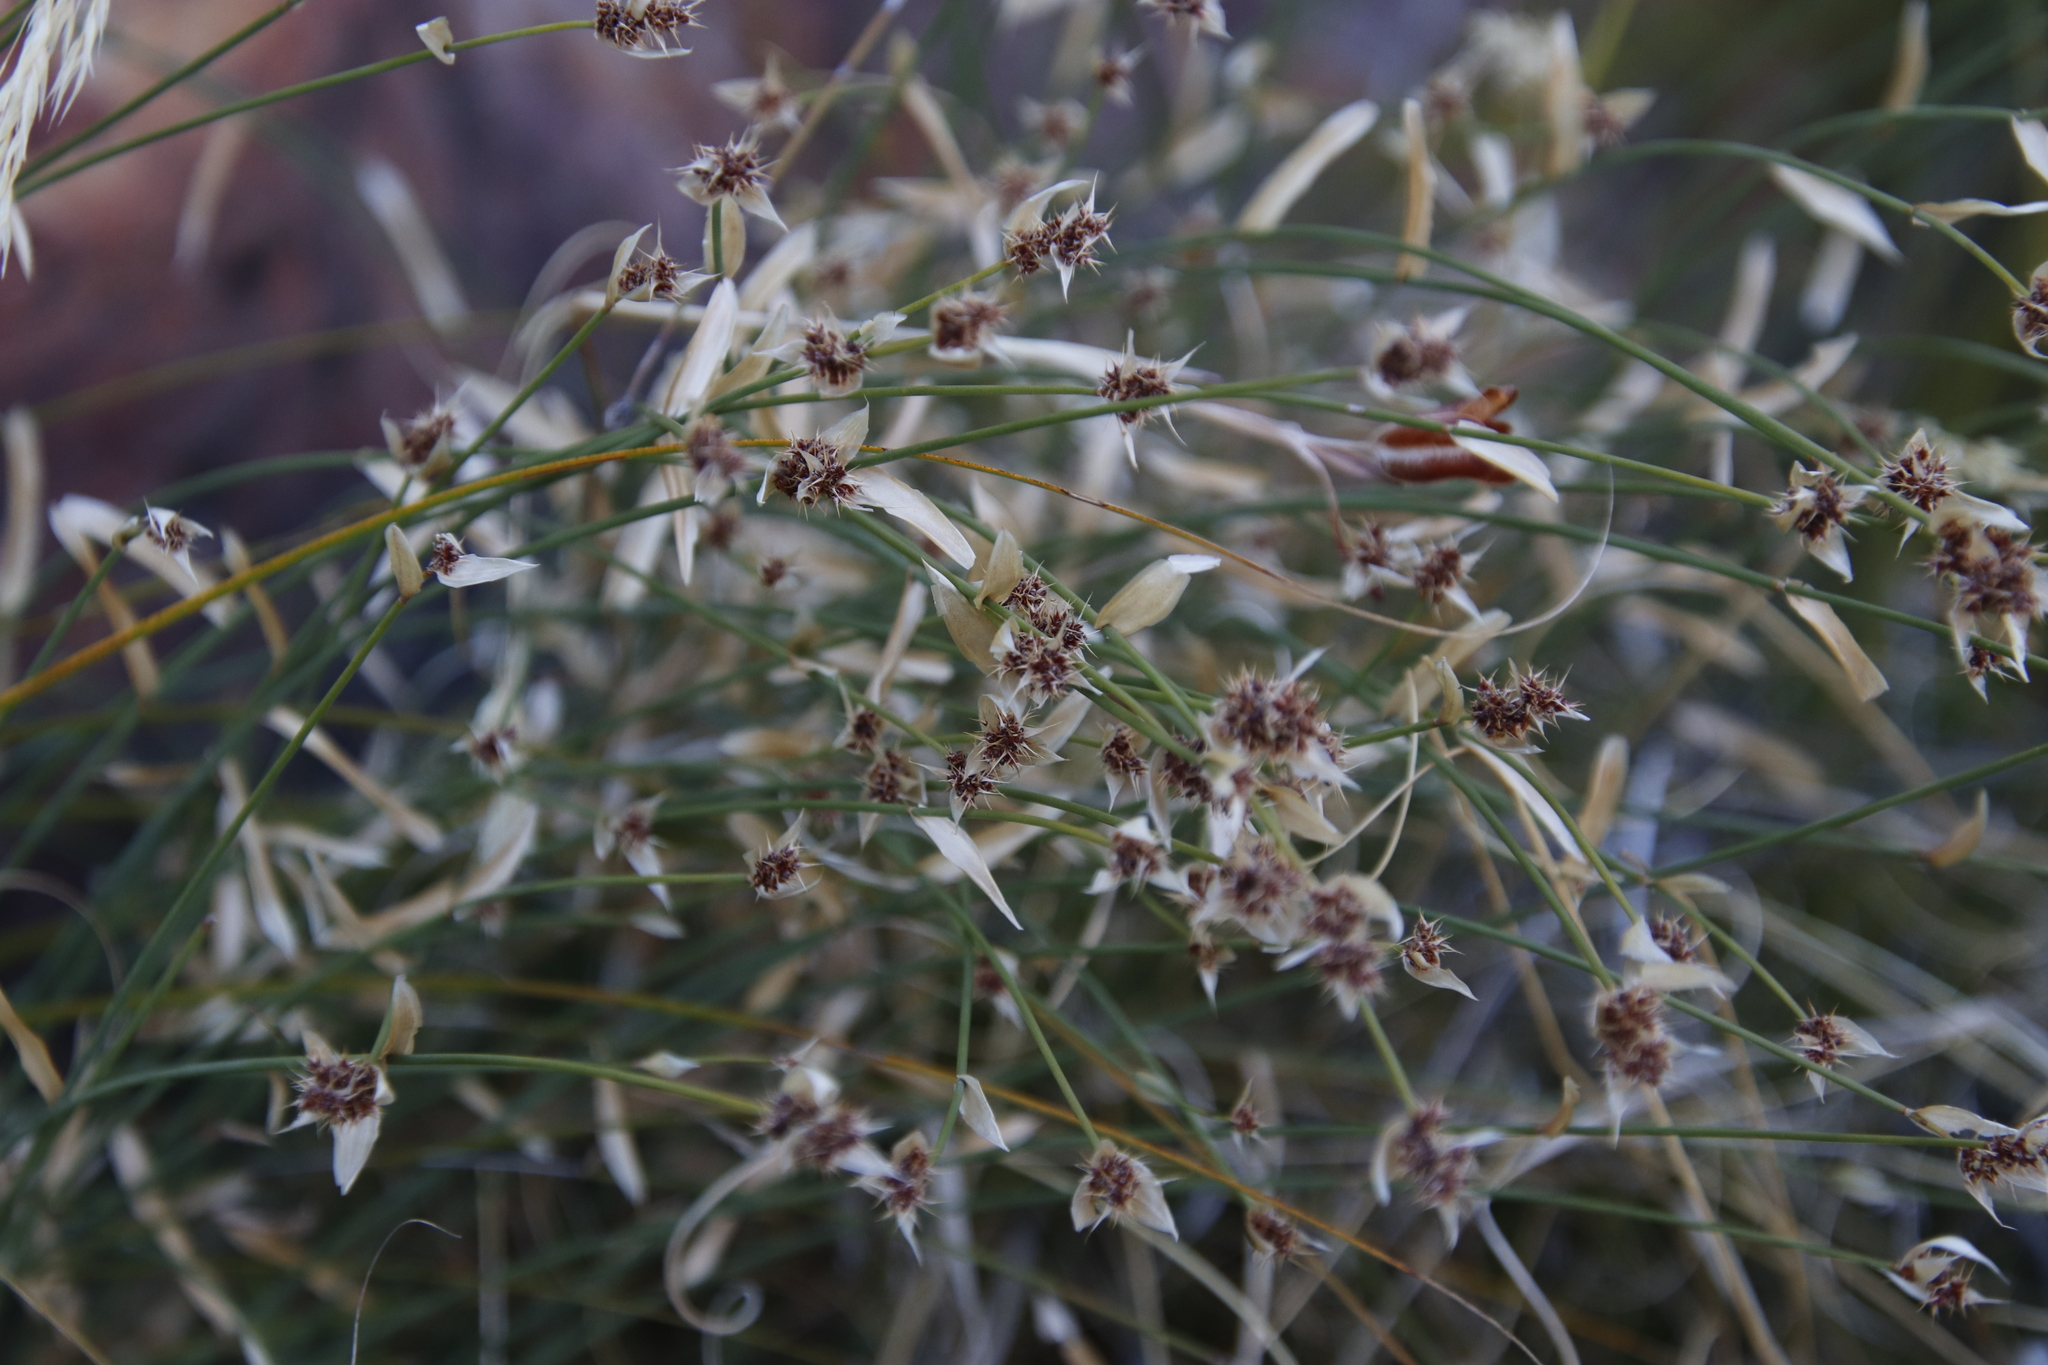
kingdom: Plantae
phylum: Tracheophyta
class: Liliopsida
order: Poales
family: Restionaceae
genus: Elegia
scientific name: Elegia asperiflora
